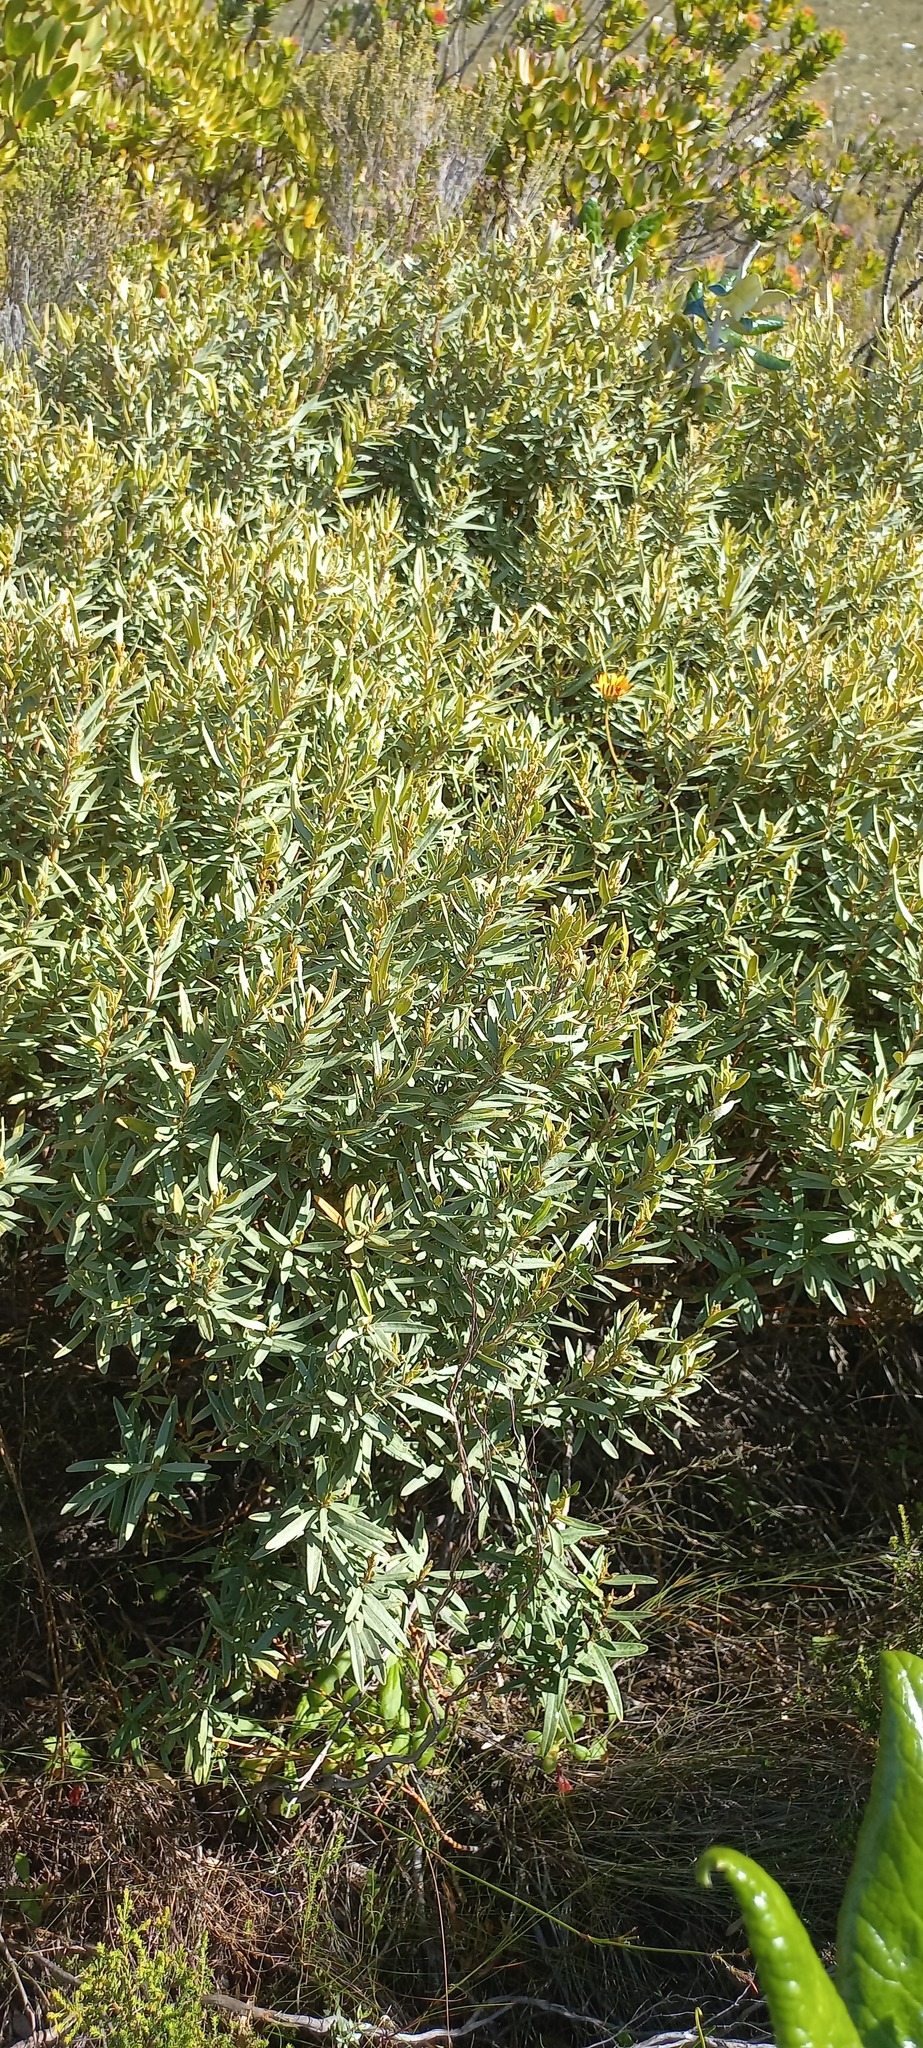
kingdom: Plantae
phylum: Tracheophyta
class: Magnoliopsida
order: Cornales
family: Grubbiaceae
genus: Grubbia
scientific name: Grubbia tomentosa
